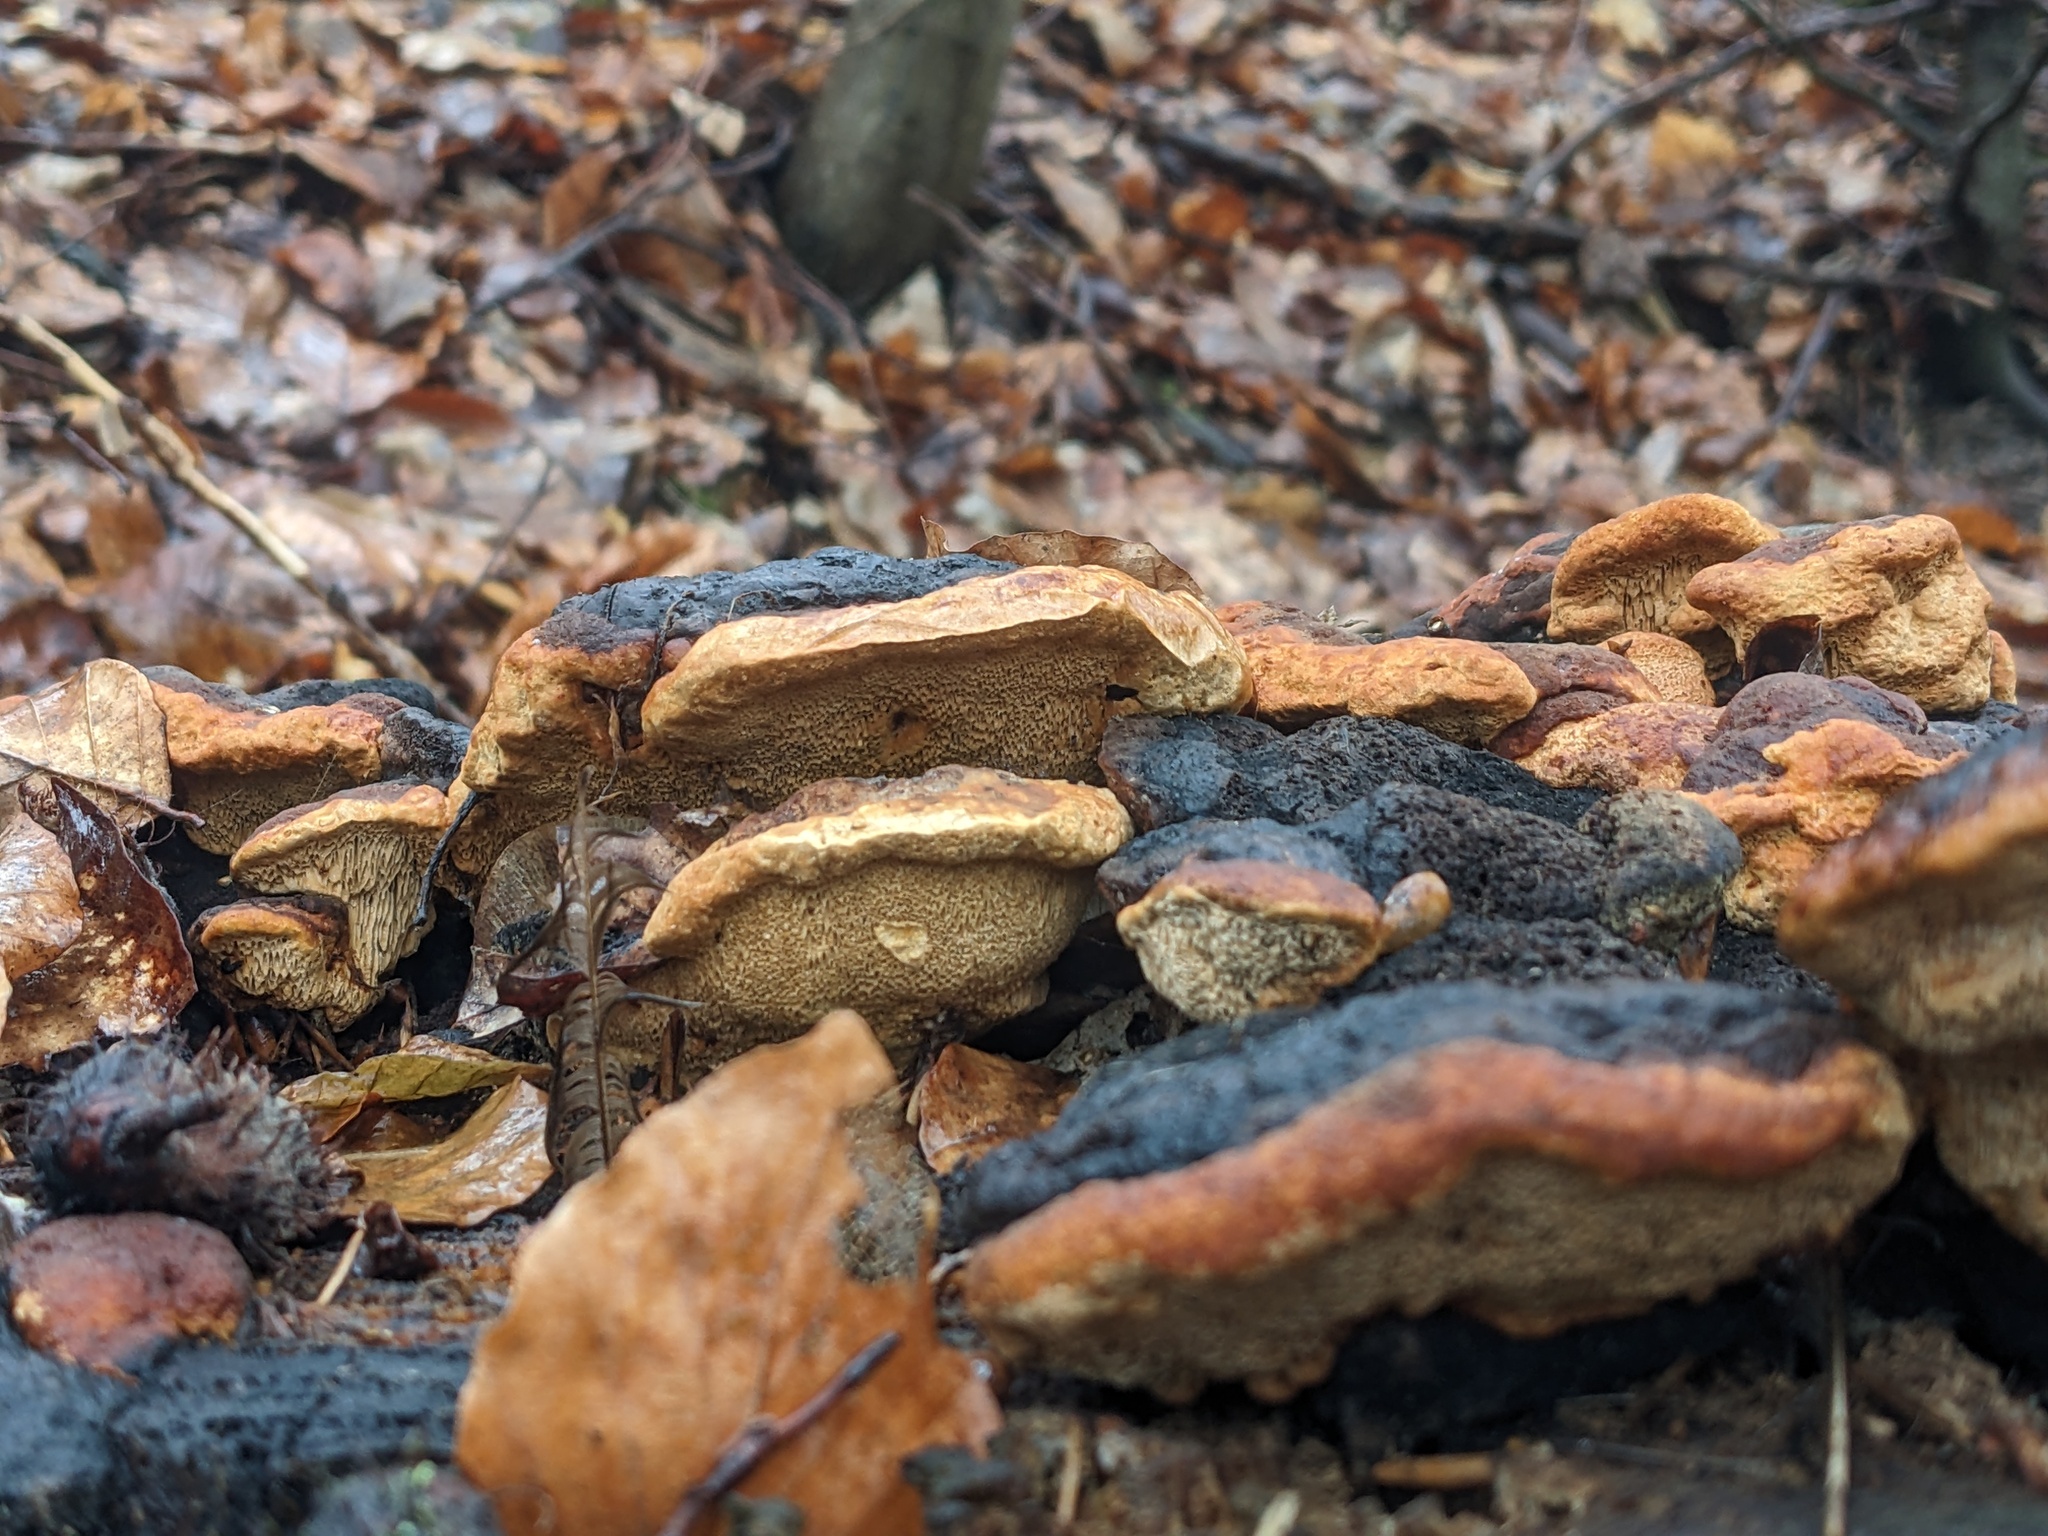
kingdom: Fungi
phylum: Basidiomycota
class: Agaricomycetes
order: Gloeophyllales
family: Gloeophyllaceae
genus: Gloeophyllum
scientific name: Gloeophyllum odoratum
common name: Anise mazegill
